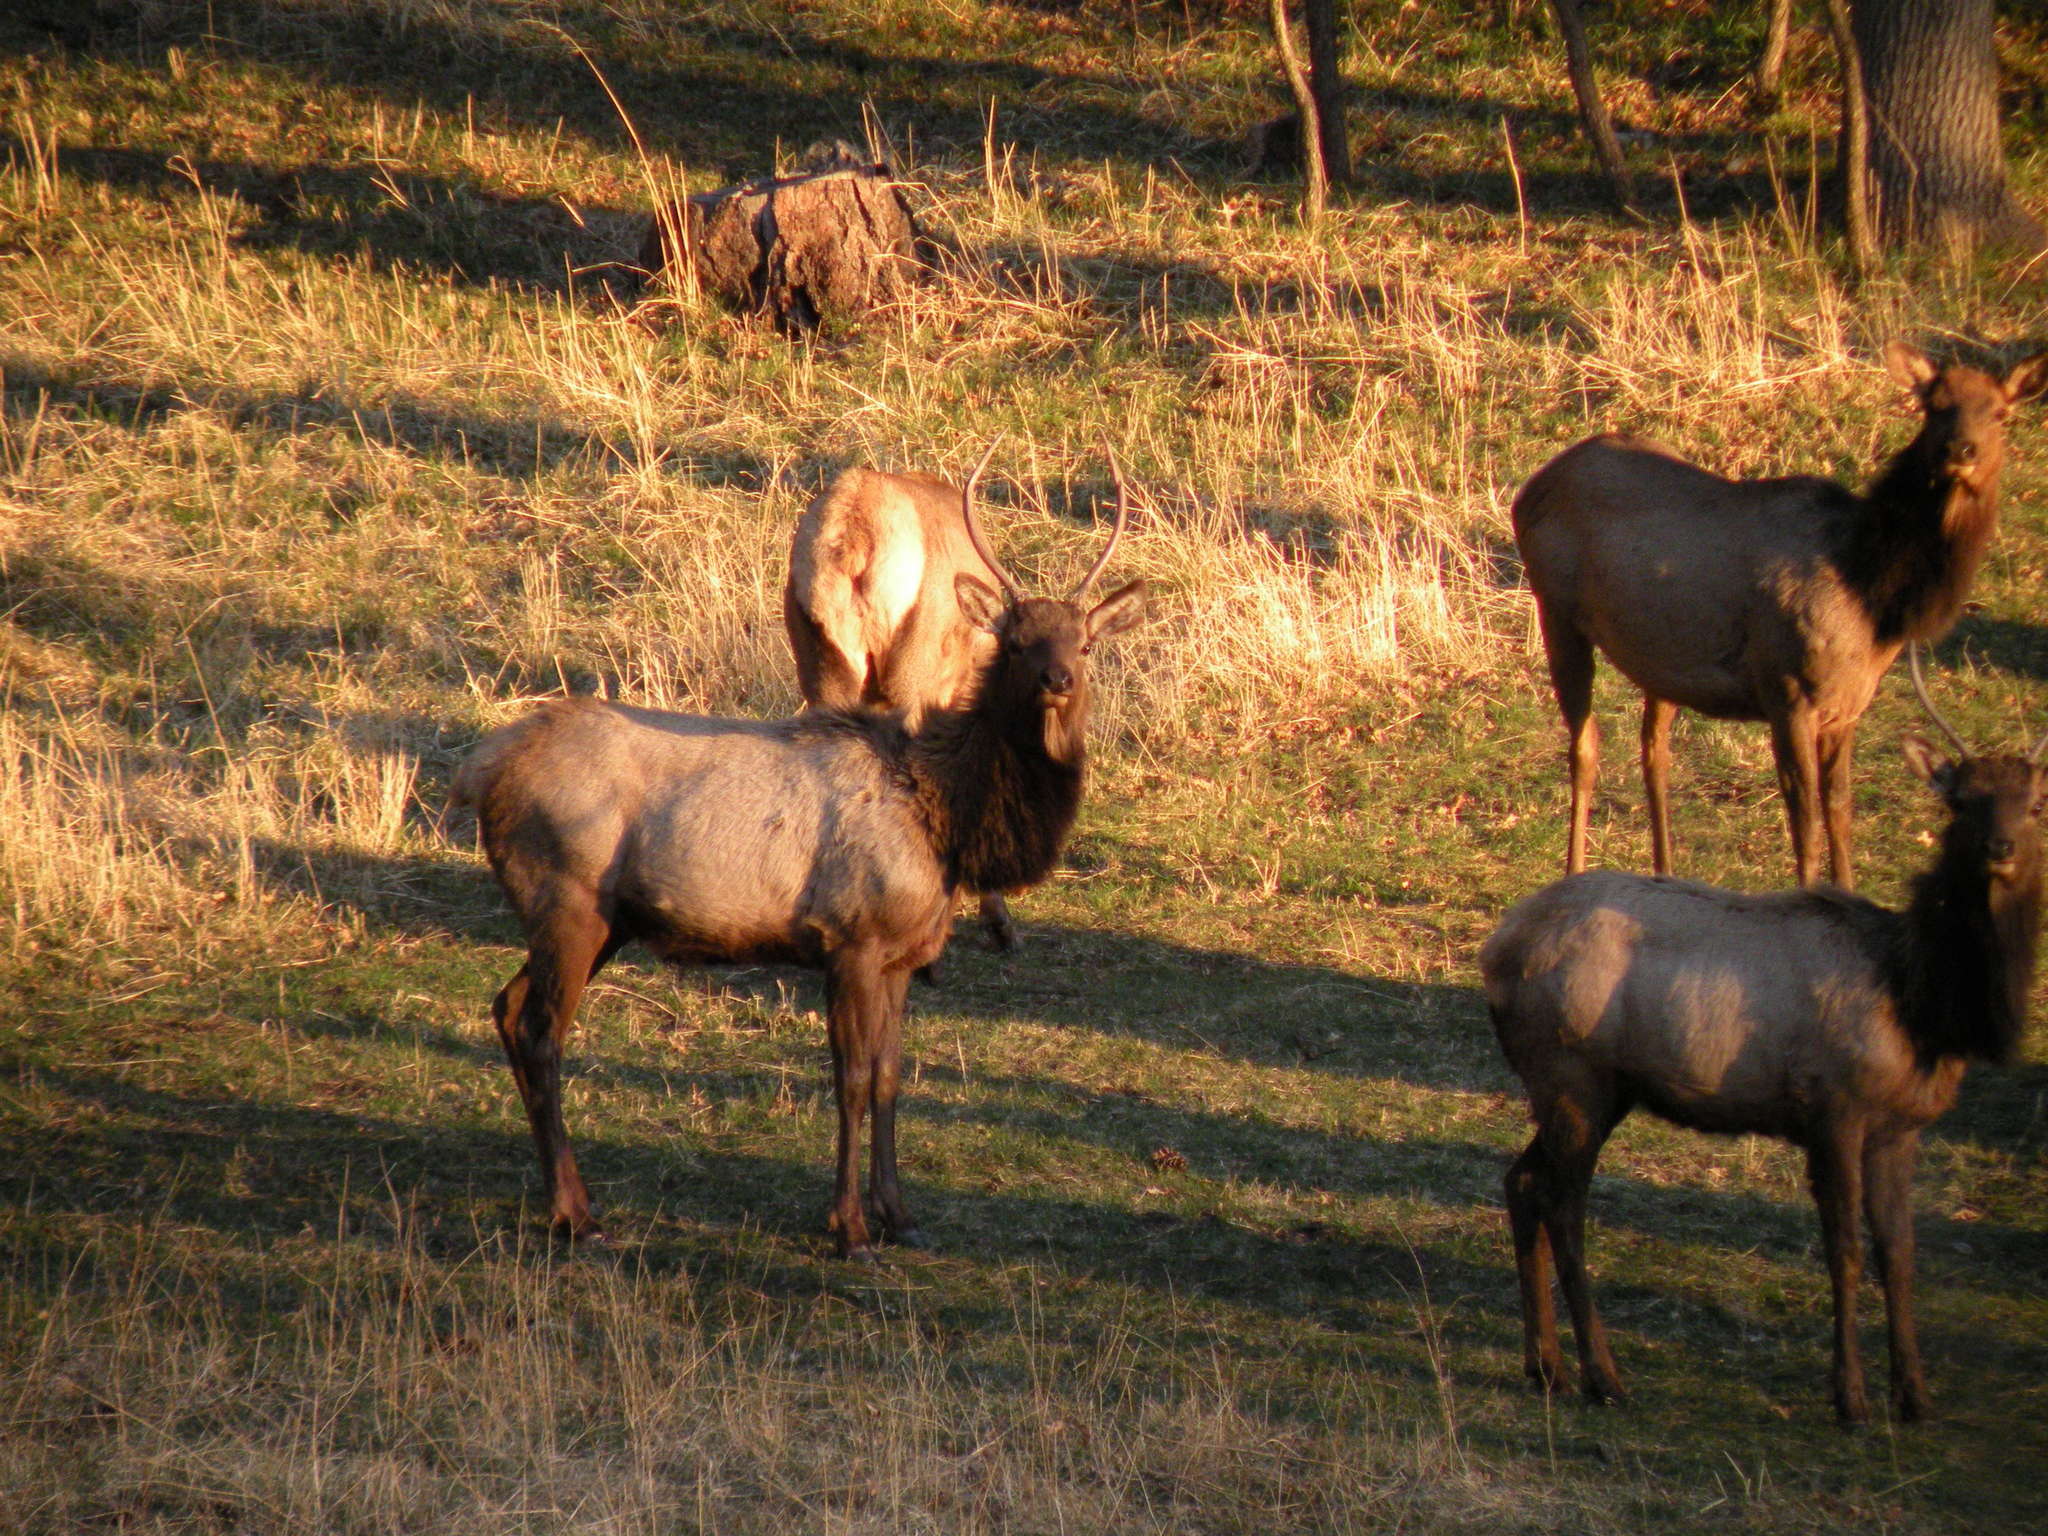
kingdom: Animalia
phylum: Chordata
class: Mammalia
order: Artiodactyla
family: Cervidae
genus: Cervus
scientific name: Cervus elaphus
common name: Red deer
